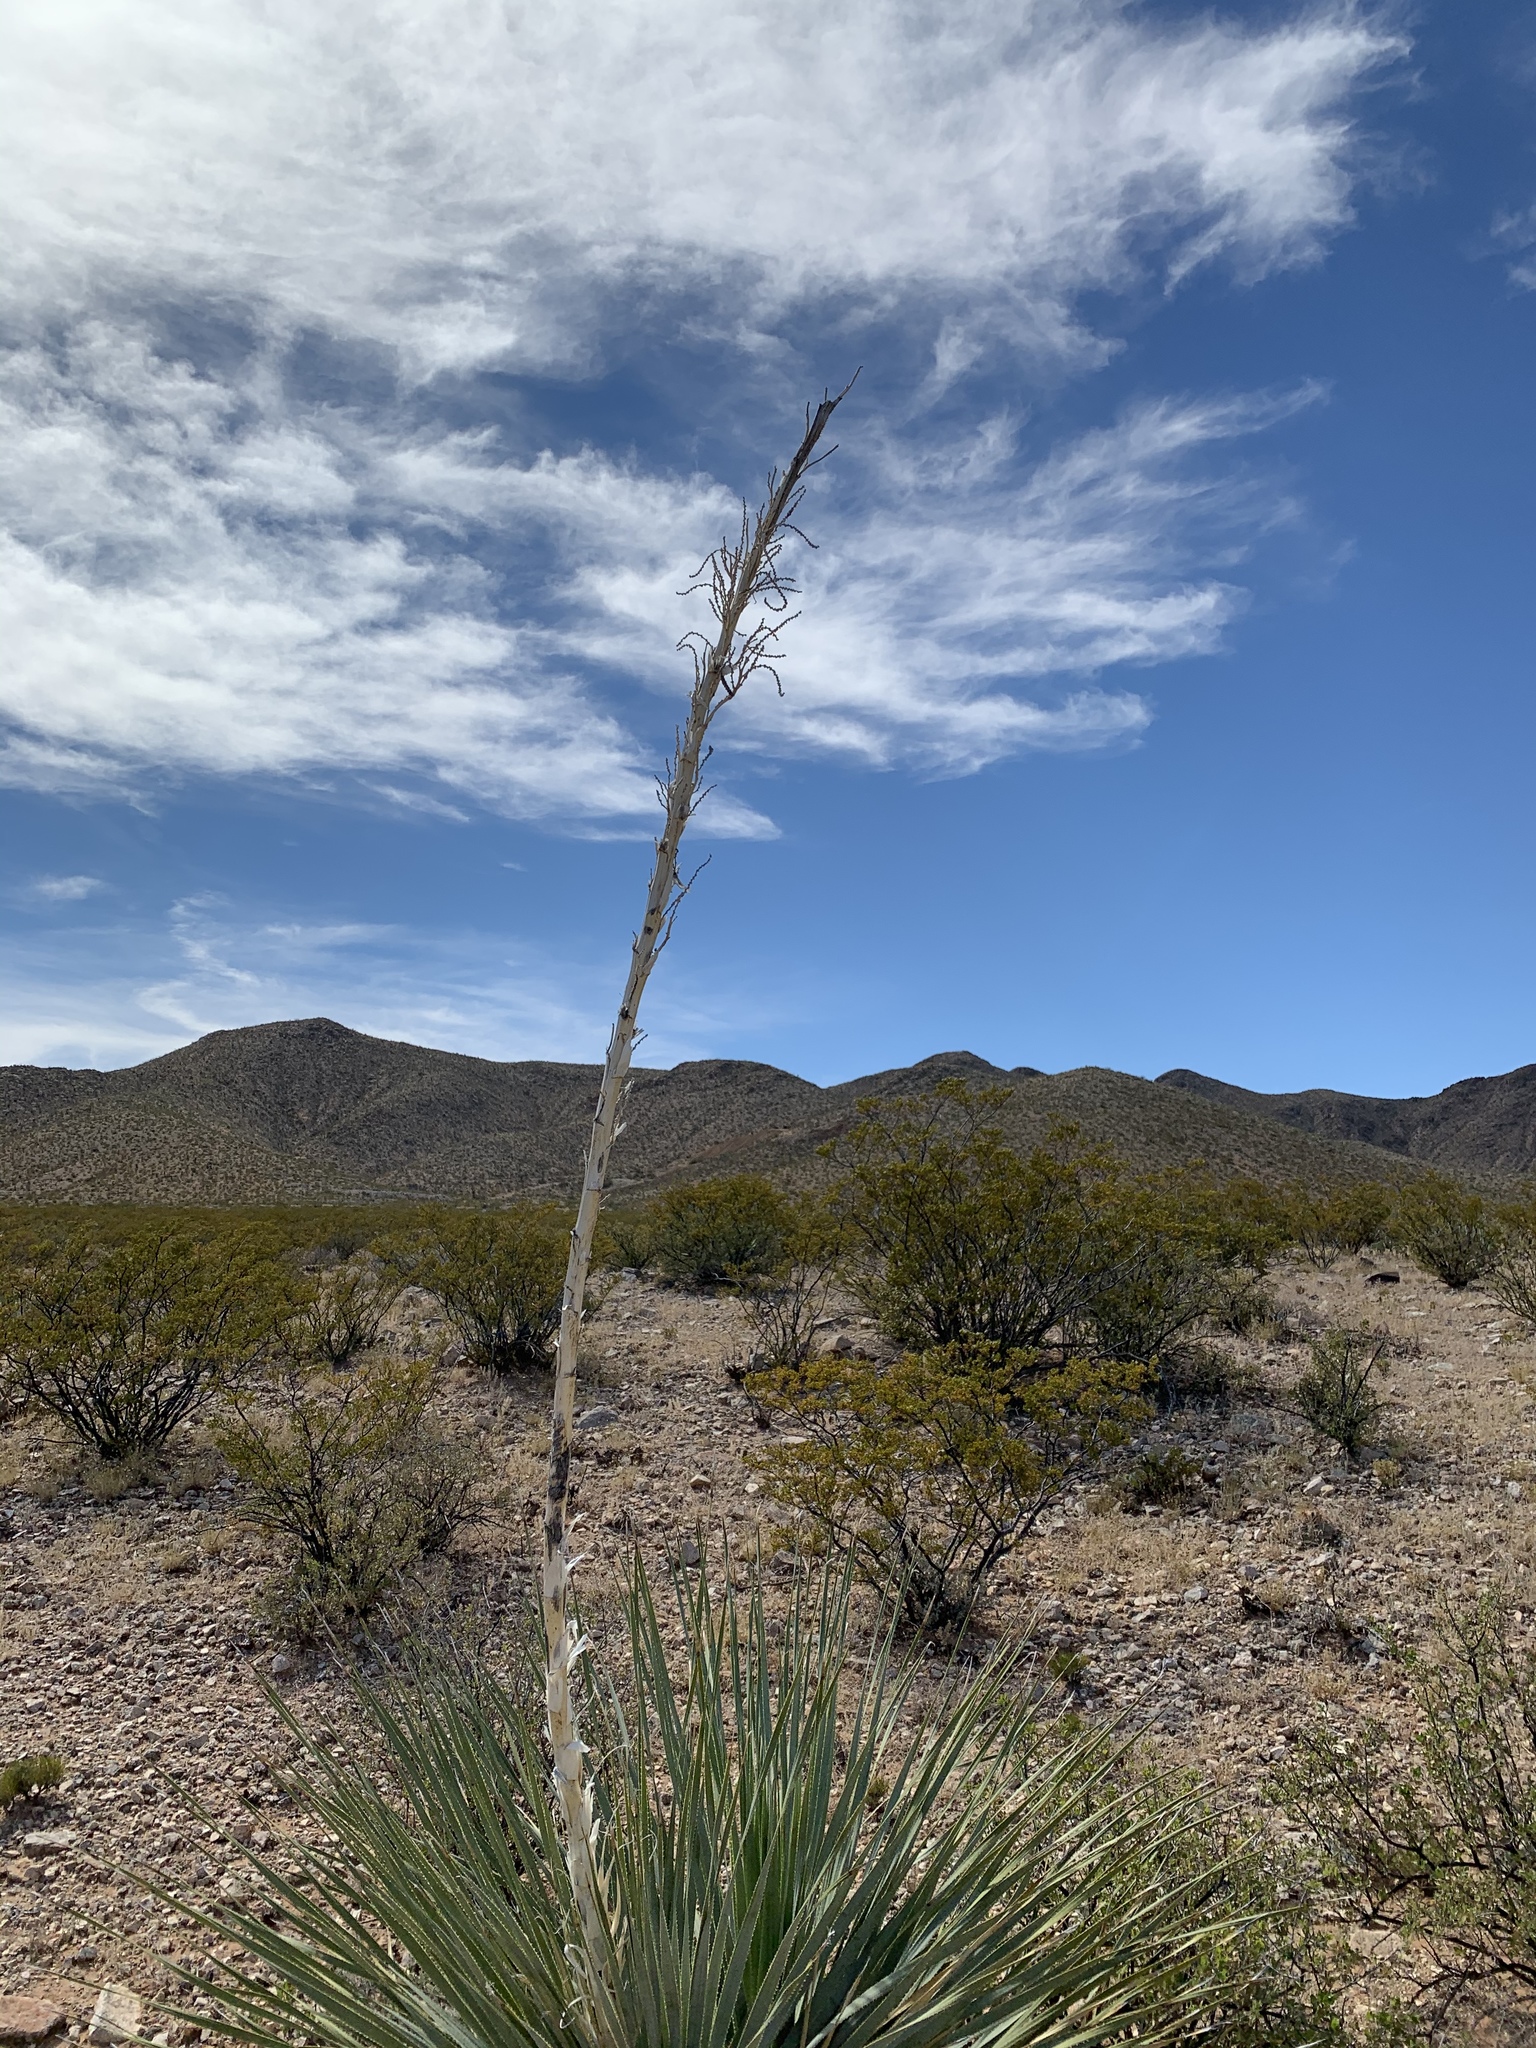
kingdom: Plantae
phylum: Tracheophyta
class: Liliopsida
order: Asparagales
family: Asparagaceae
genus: Dasylirion
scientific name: Dasylirion wheeleri
